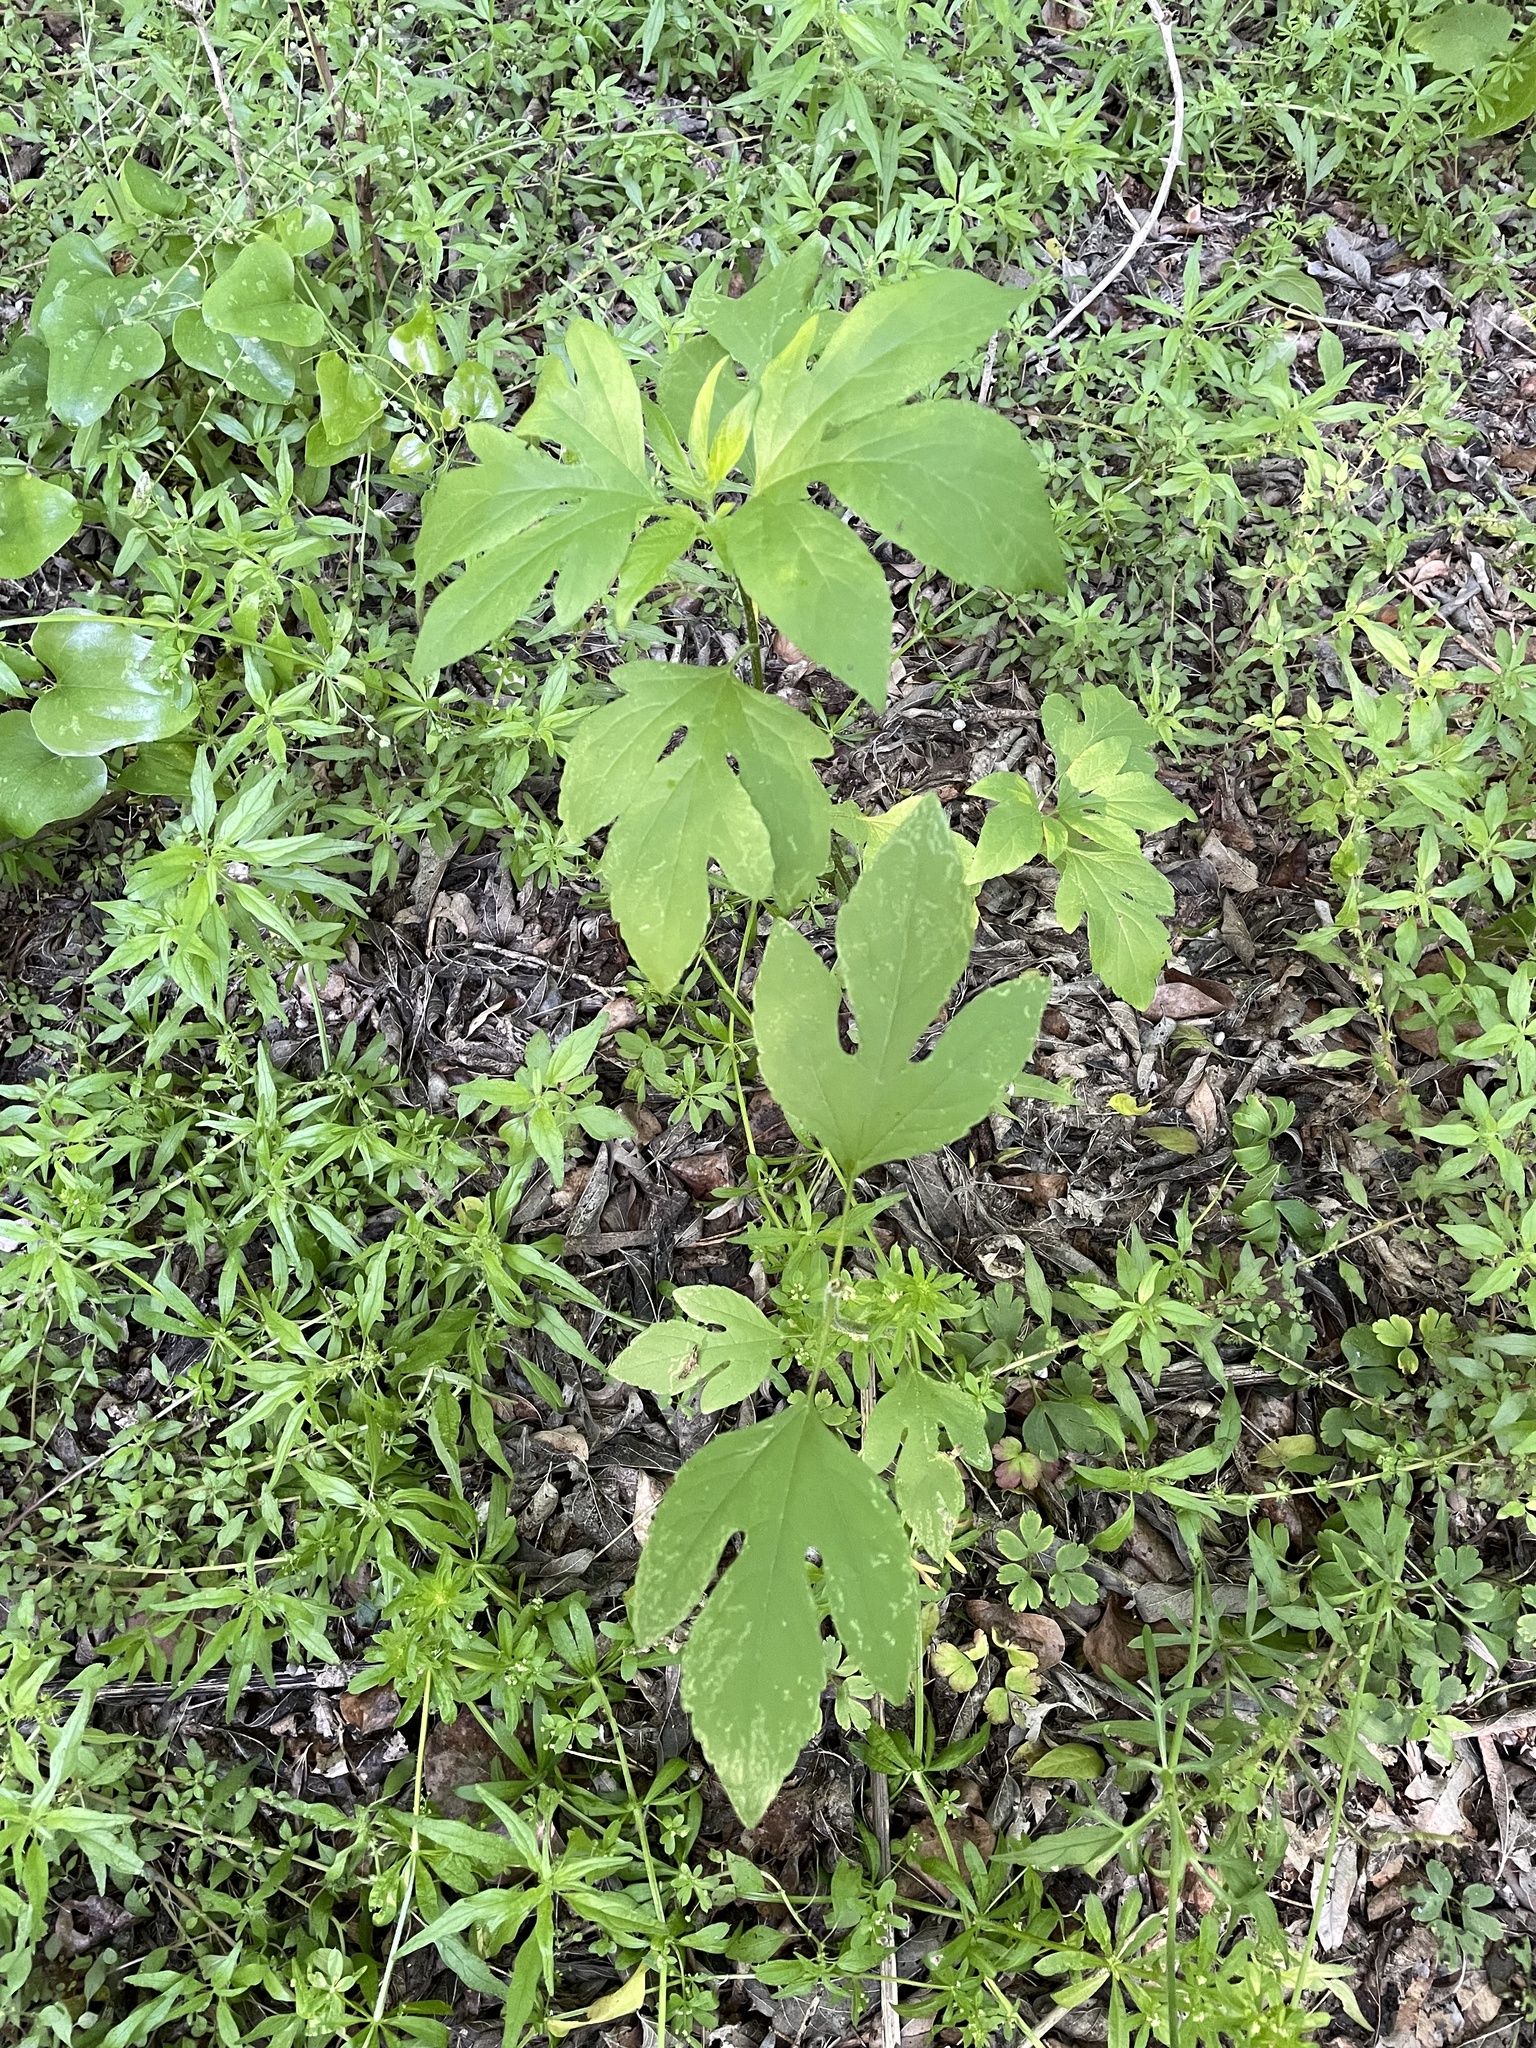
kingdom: Plantae
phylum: Tracheophyta
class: Magnoliopsida
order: Asterales
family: Asteraceae
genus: Ambrosia
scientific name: Ambrosia trifida
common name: Giant ragweed
